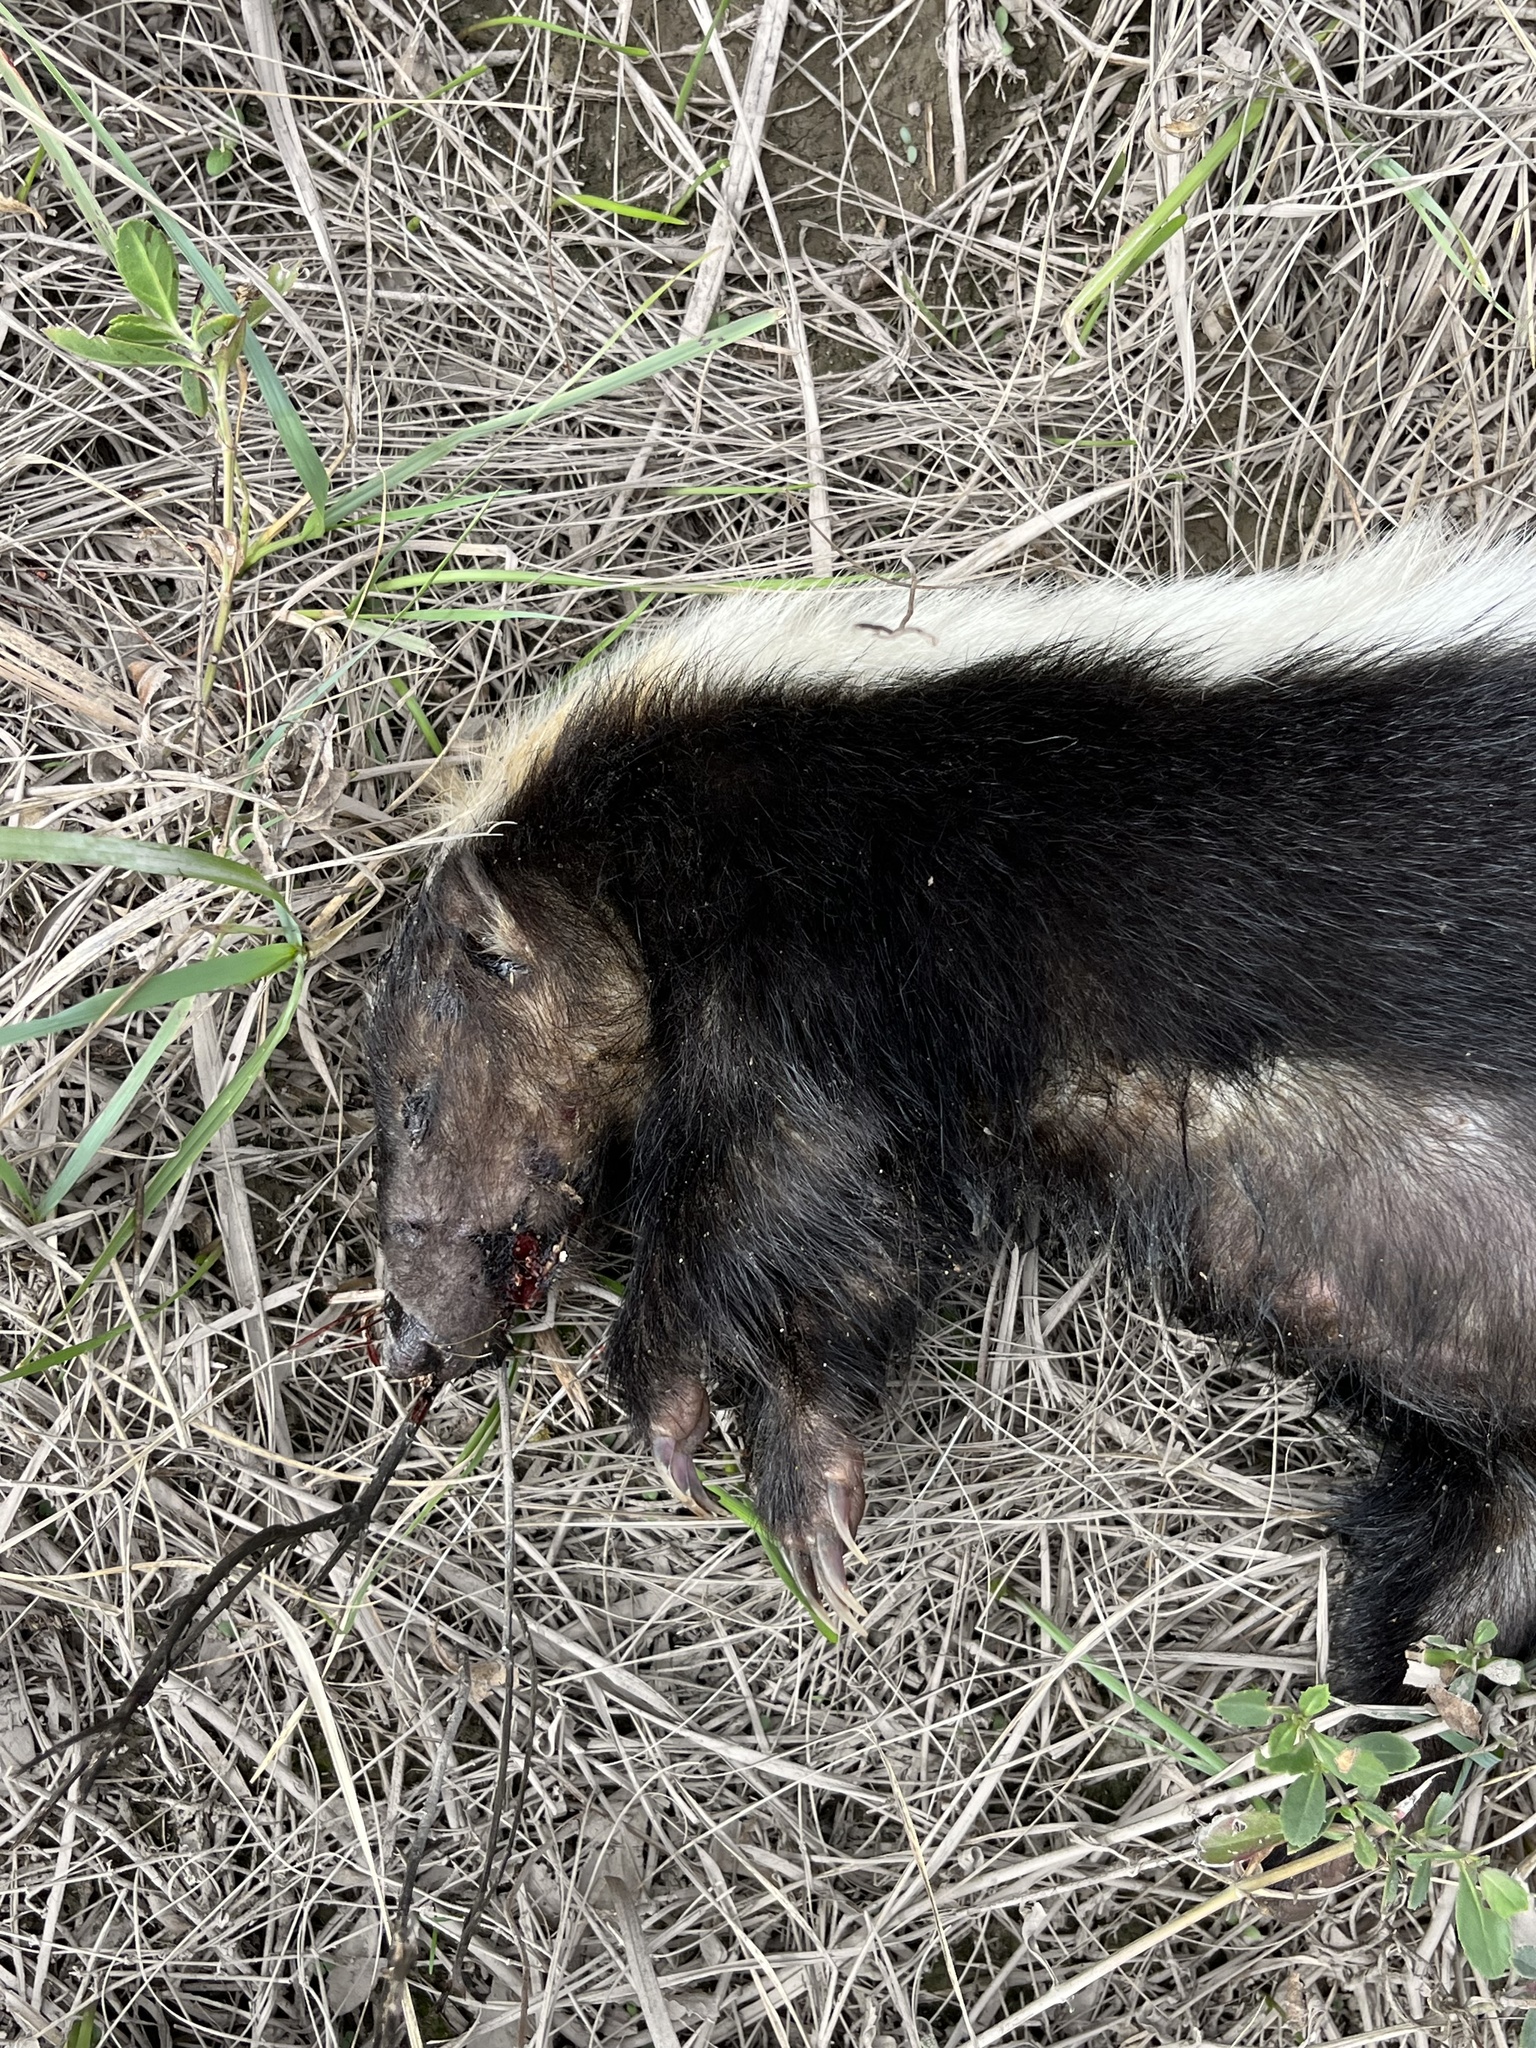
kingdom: Animalia
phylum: Chordata
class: Mammalia
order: Carnivora
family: Mephitidae
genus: Conepatus
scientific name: Conepatus leuconotus
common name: Eastern hog-nosed skunk
